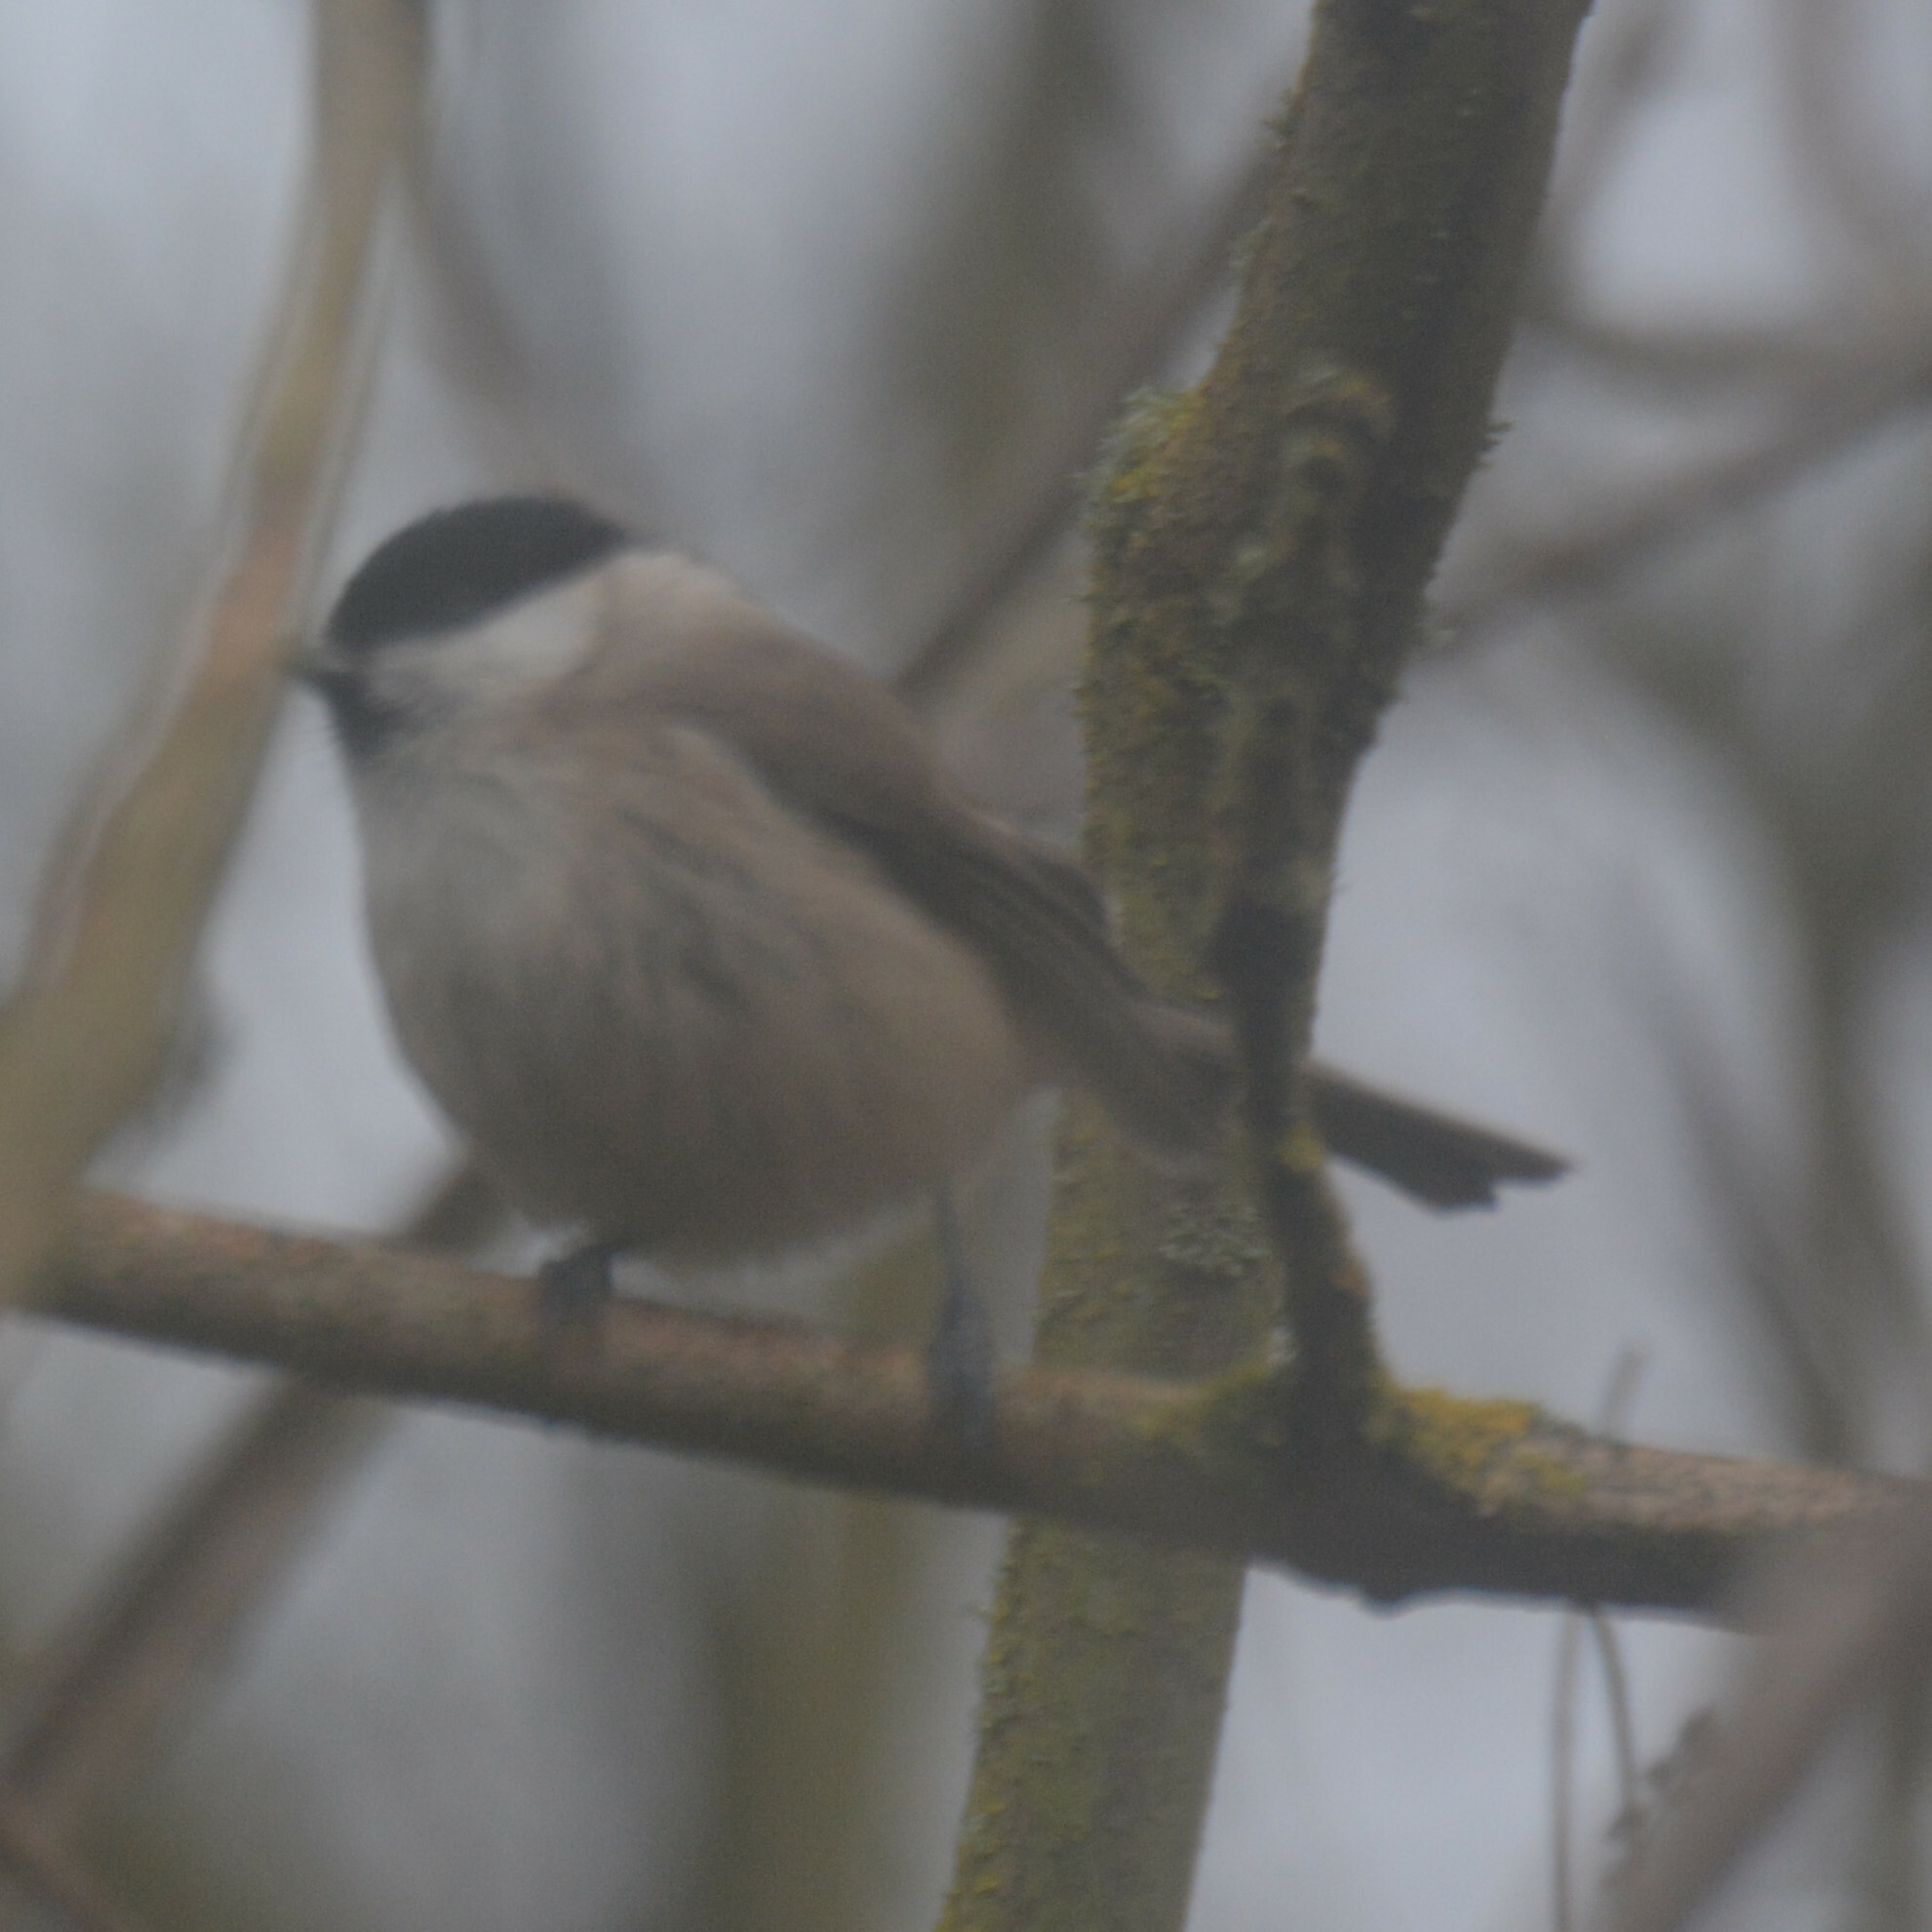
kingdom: Animalia
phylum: Chordata
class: Aves
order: Passeriformes
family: Paridae
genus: Poecile
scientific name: Poecile palustris
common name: Marsh tit
